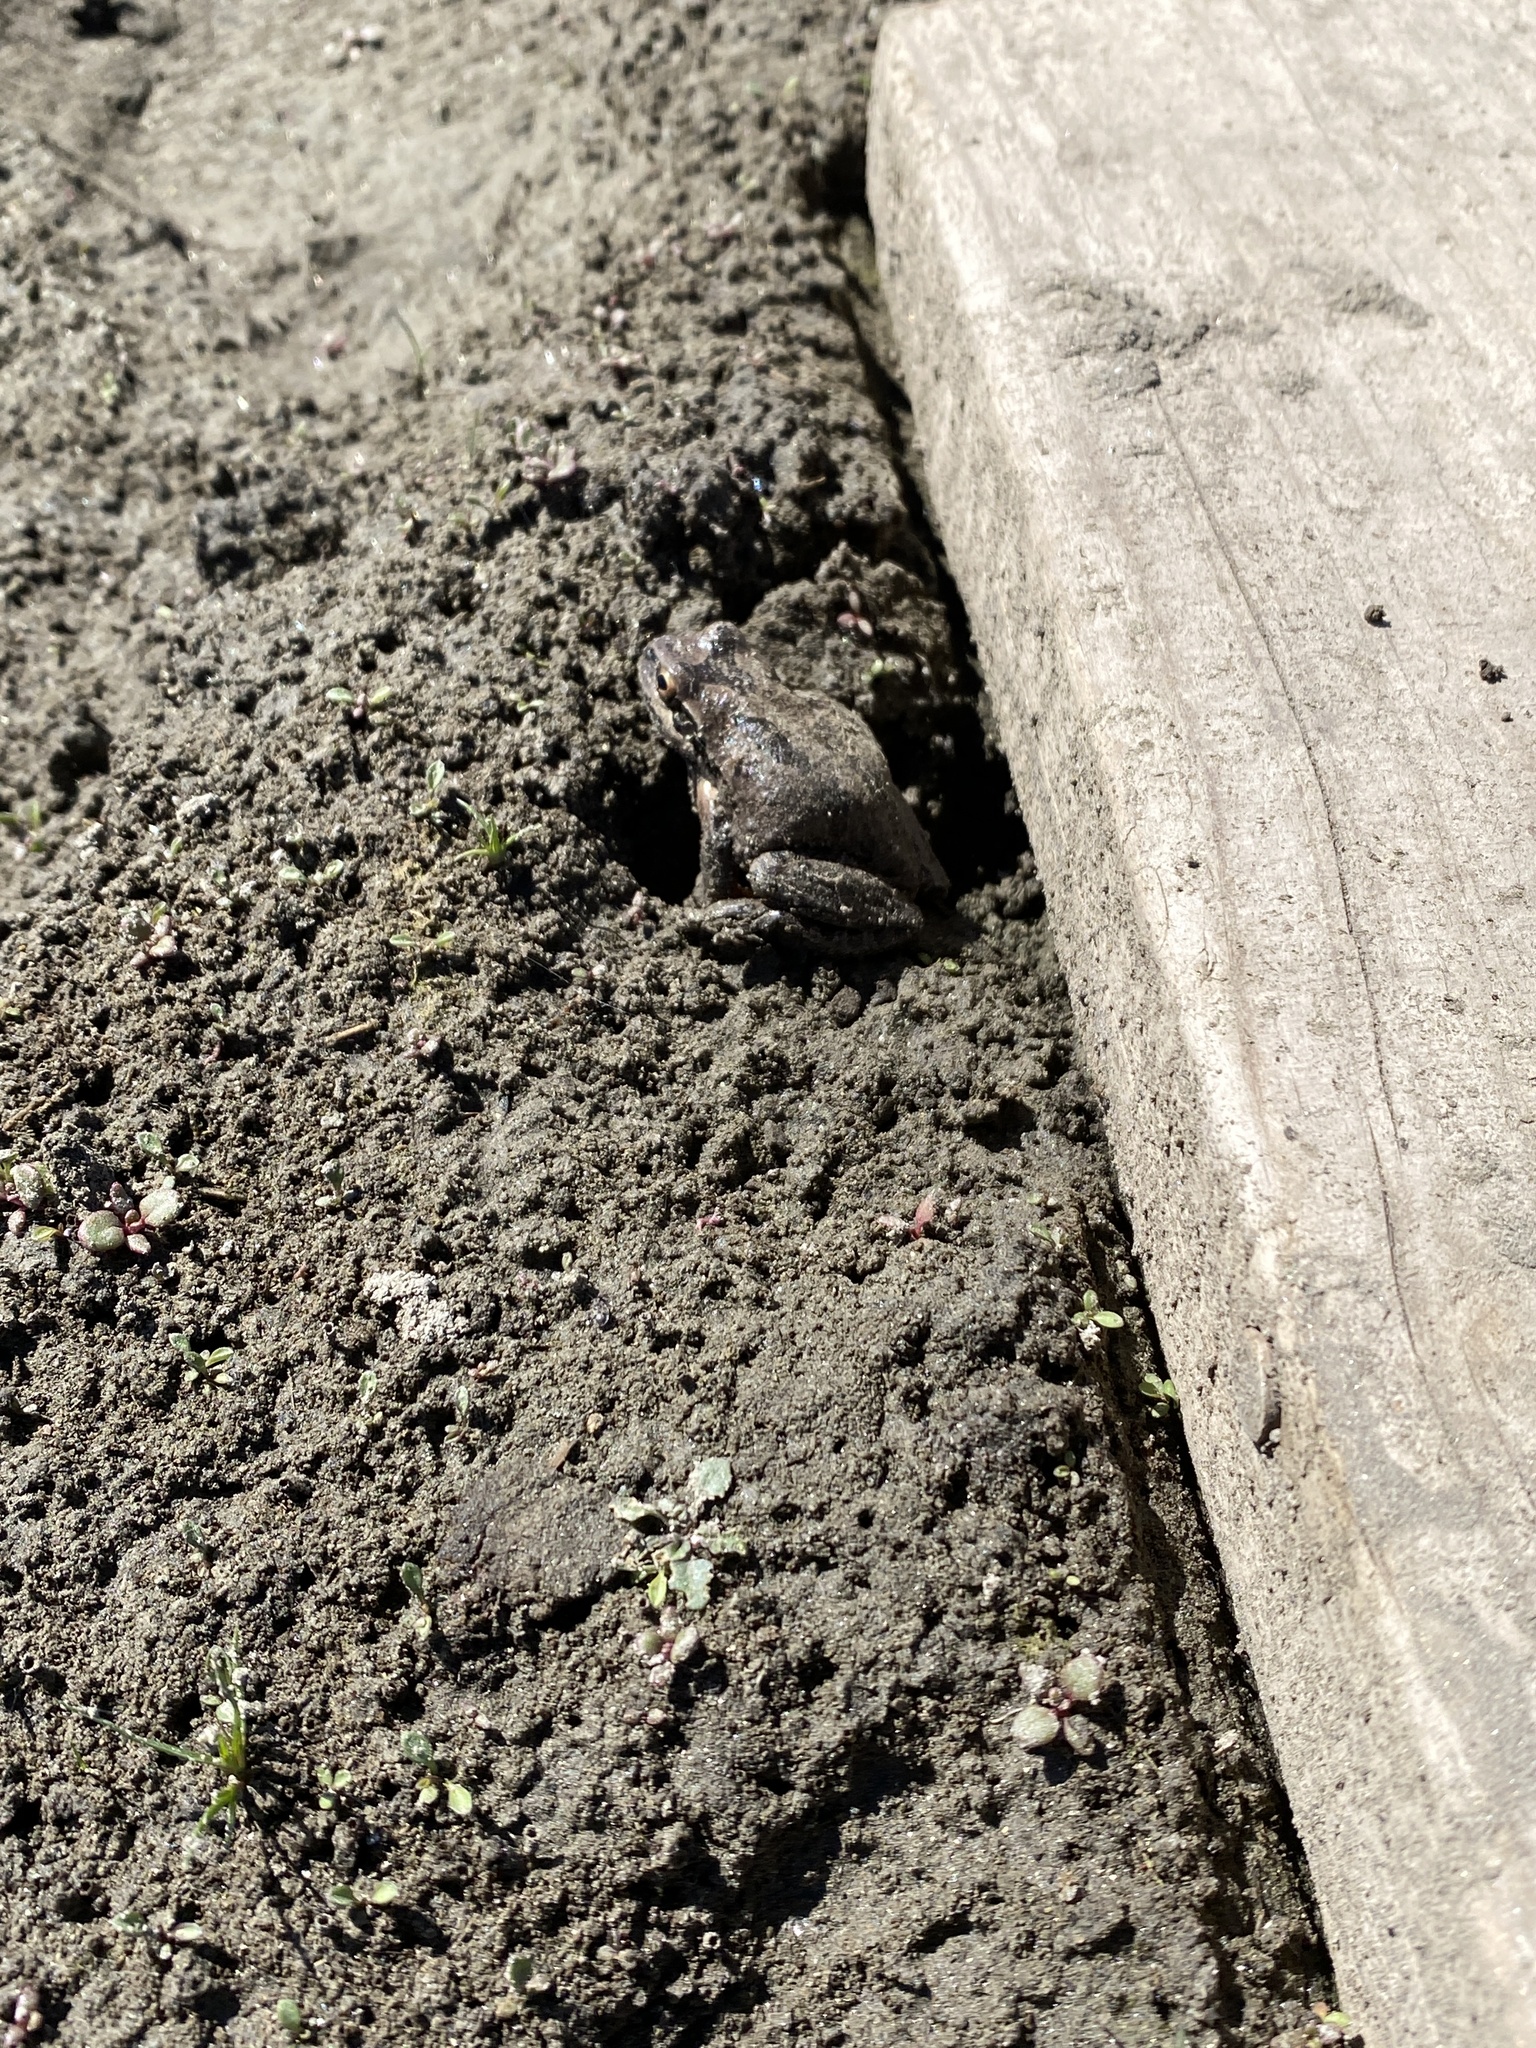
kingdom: Animalia
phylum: Chordata
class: Amphibia
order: Anura
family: Hylidae
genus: Pseudacris
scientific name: Pseudacris regilla
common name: Pacific chorus frog
